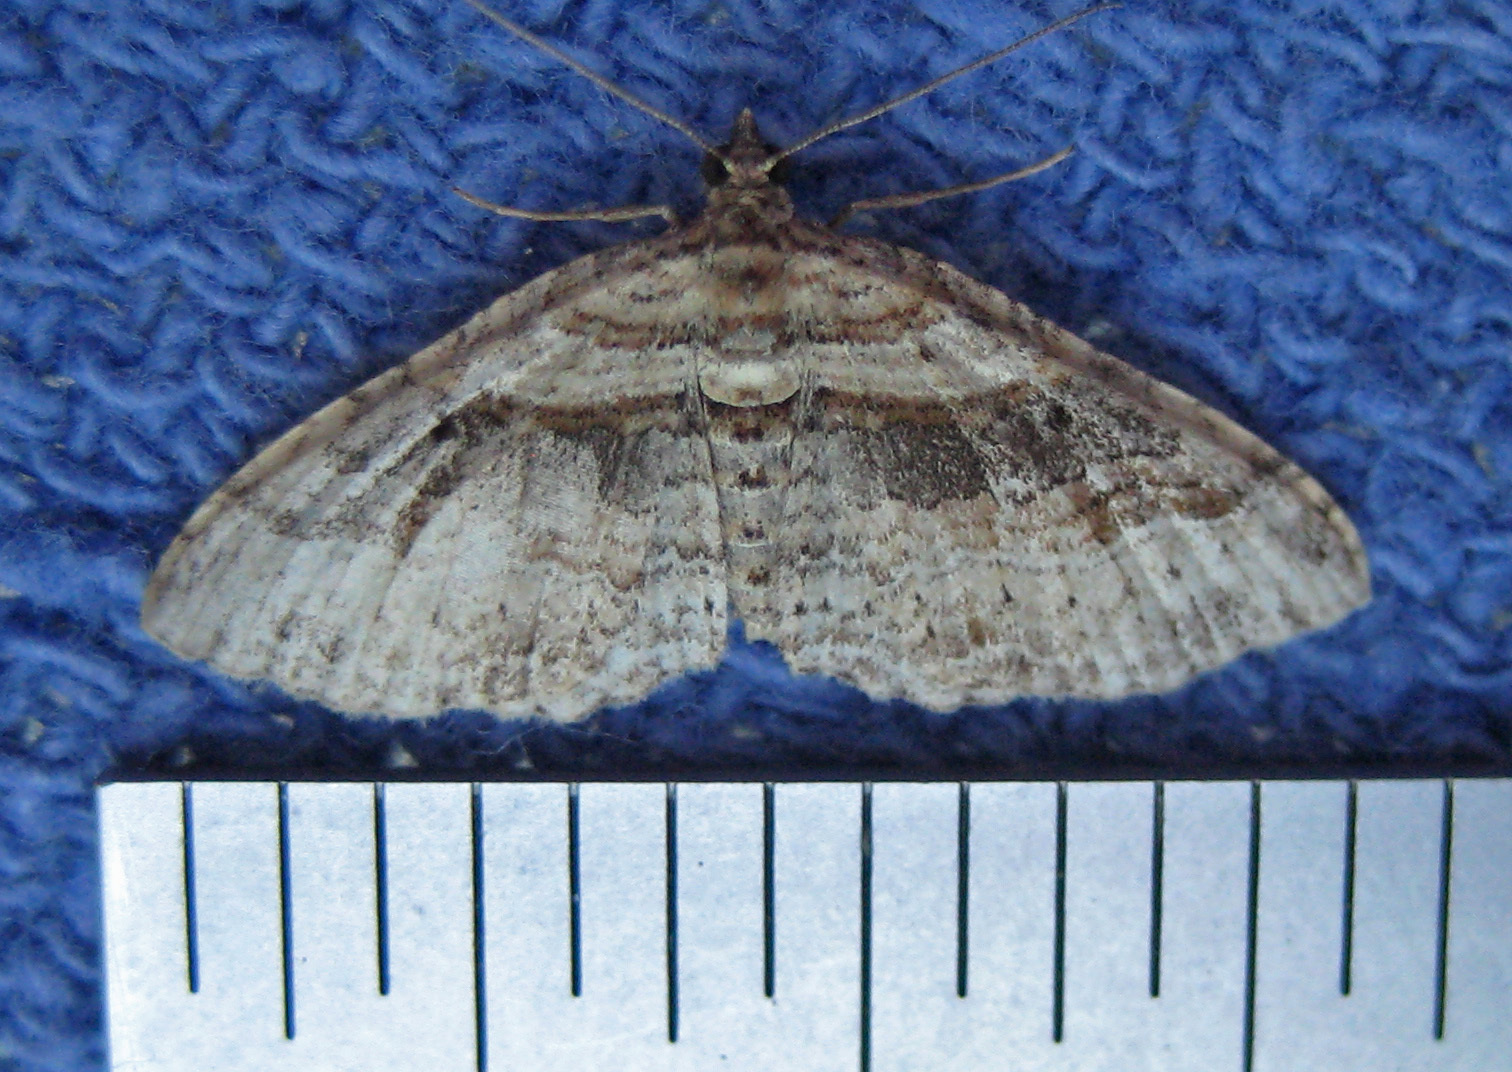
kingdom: Animalia
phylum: Arthropoda
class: Insecta
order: Lepidoptera
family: Geometridae
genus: Costaconvexa
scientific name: Costaconvexa centrostrigaria
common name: Bent-line carpet
